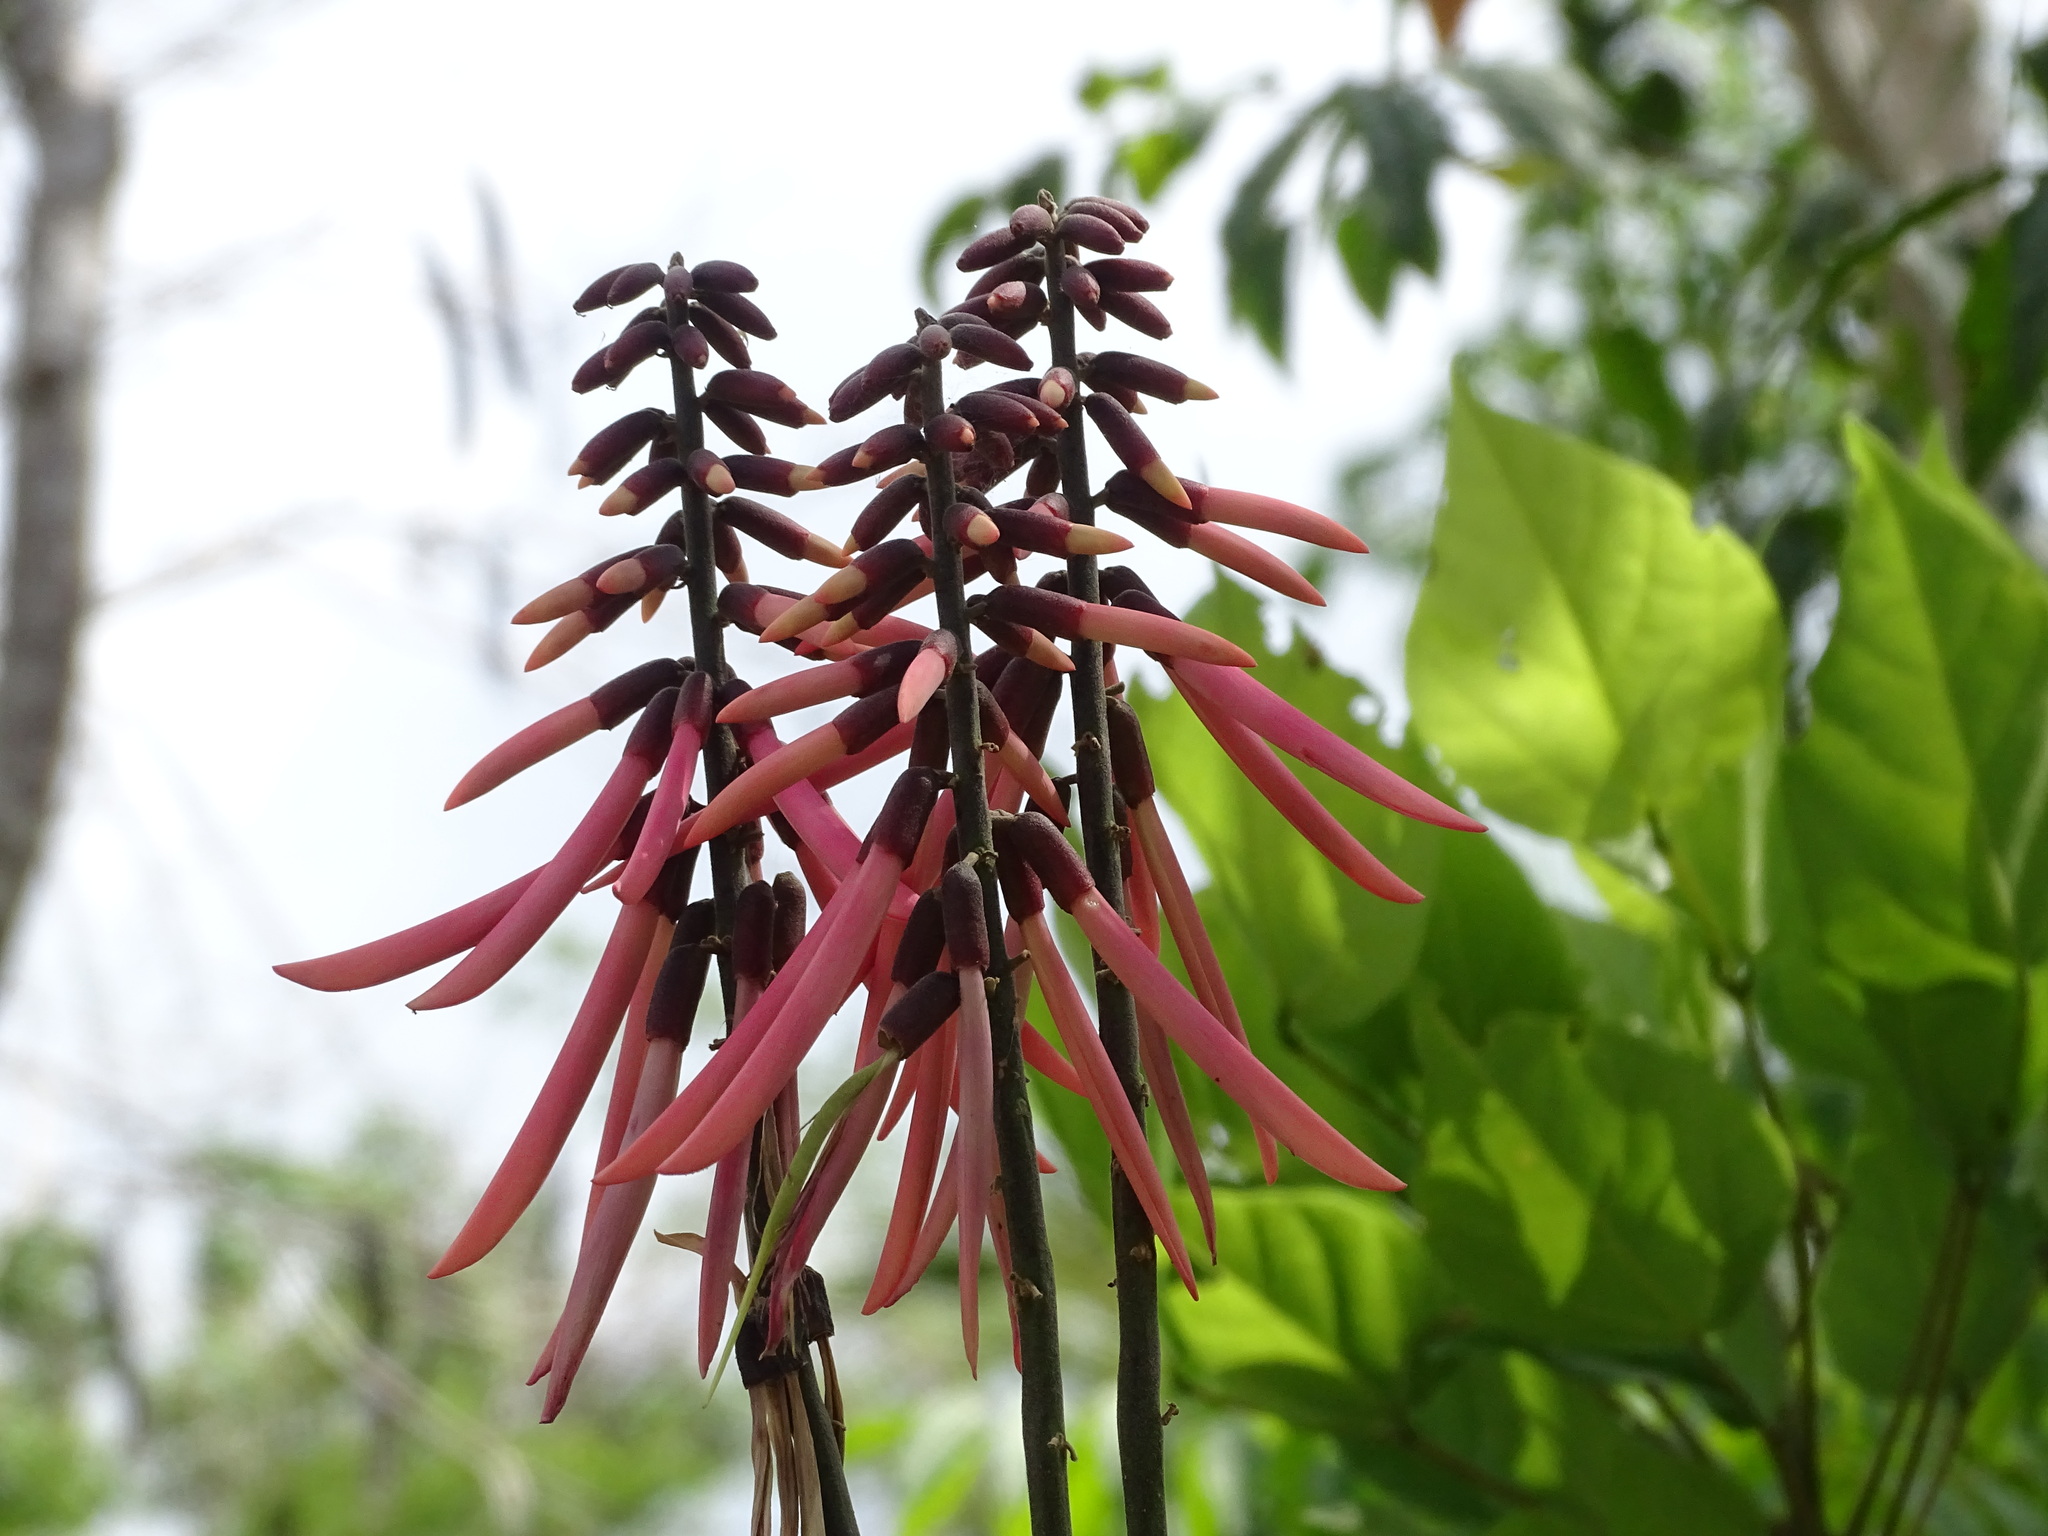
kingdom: Plantae
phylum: Tracheophyta
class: Magnoliopsida
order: Fabales
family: Fabaceae
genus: Erythrina
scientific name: Erythrina standleyana
